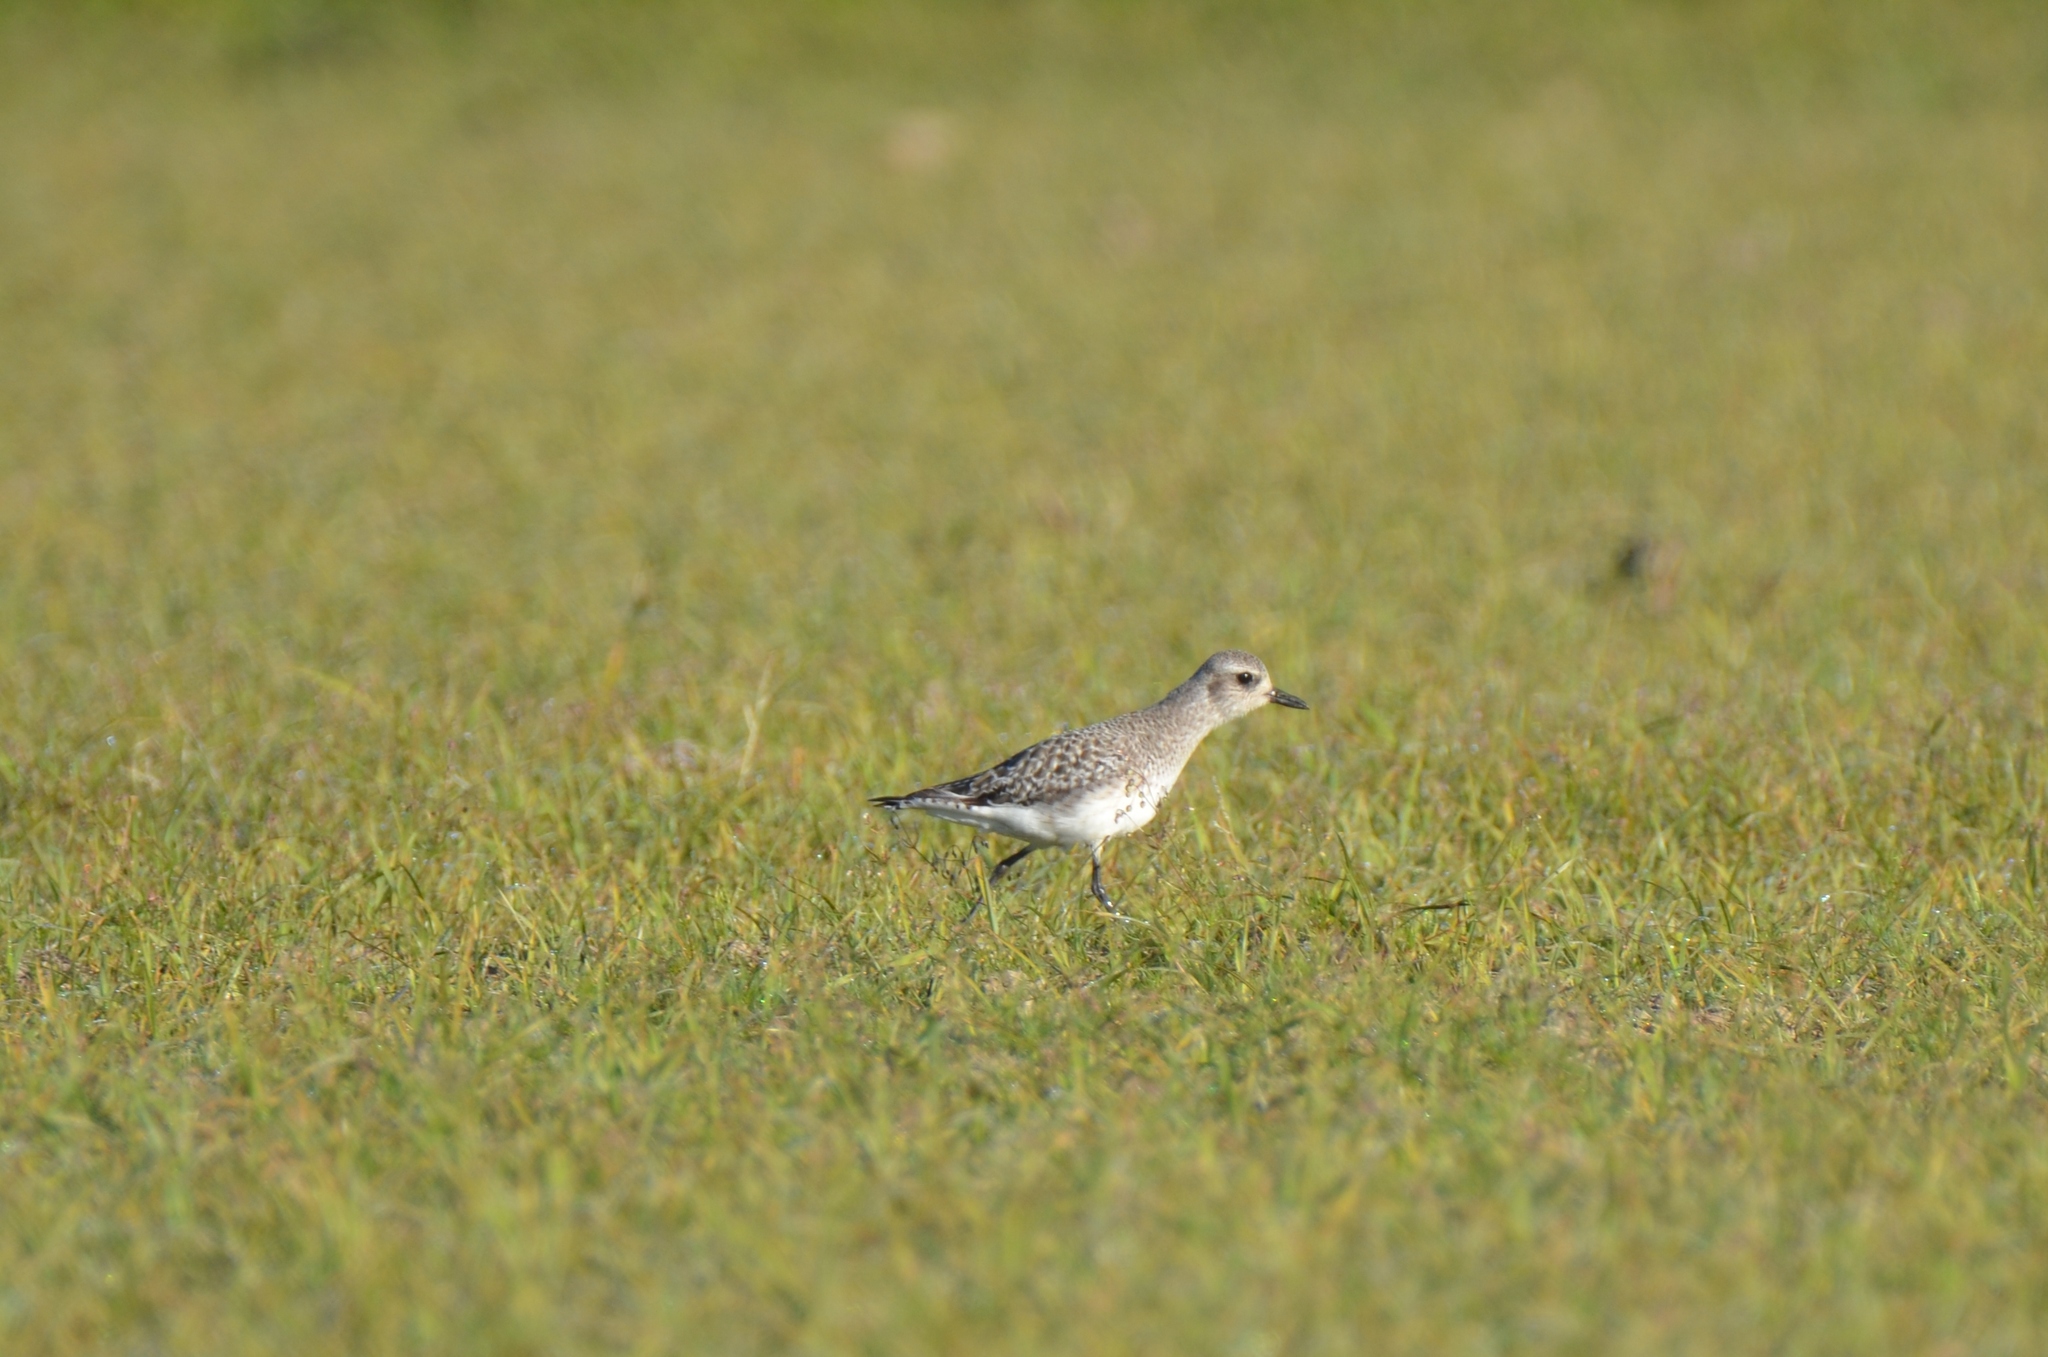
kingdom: Animalia
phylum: Chordata
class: Aves
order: Charadriiformes
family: Charadriidae
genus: Pluvialis
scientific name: Pluvialis squatarola
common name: Grey plover
